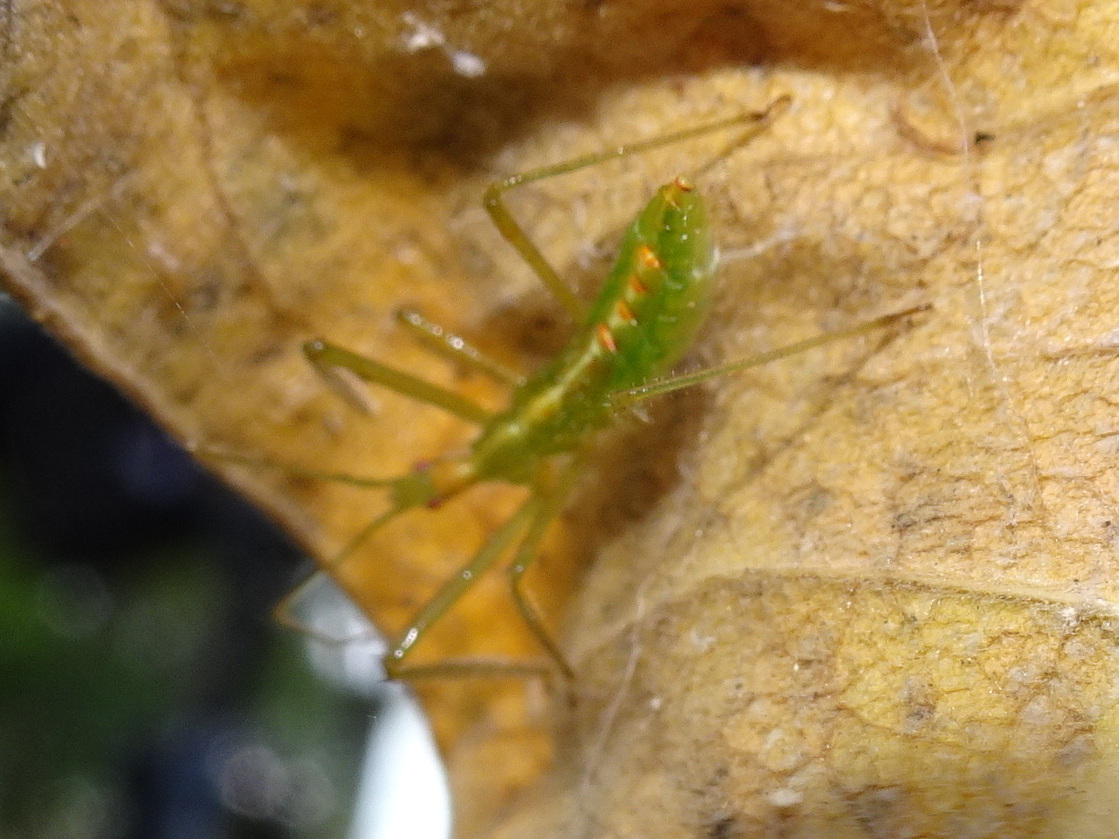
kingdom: Animalia
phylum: Arthropoda
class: Insecta
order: Hemiptera
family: Reduviidae
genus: Zelus
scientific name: Zelus luridus
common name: Pale green assassin bug
